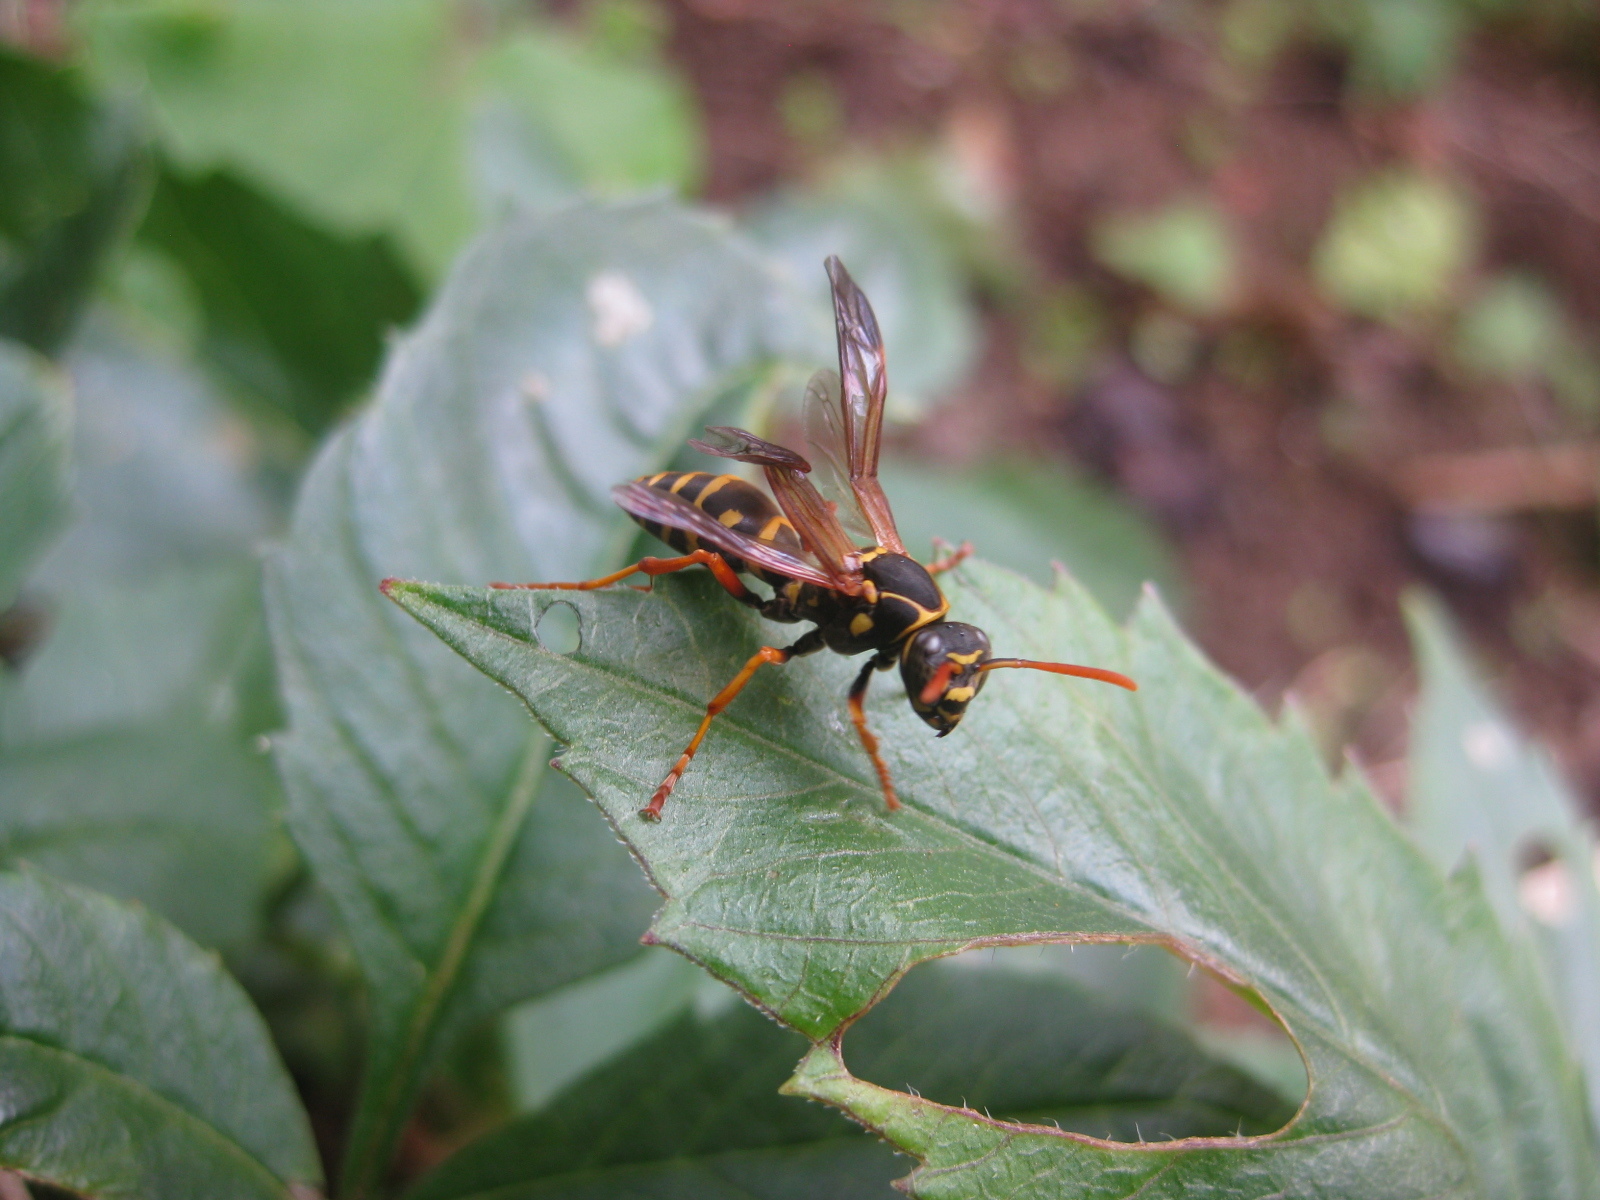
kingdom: Animalia
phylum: Arthropoda
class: Insecta
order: Hymenoptera
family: Eumenidae
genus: Polistes
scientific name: Polistes chinensis
